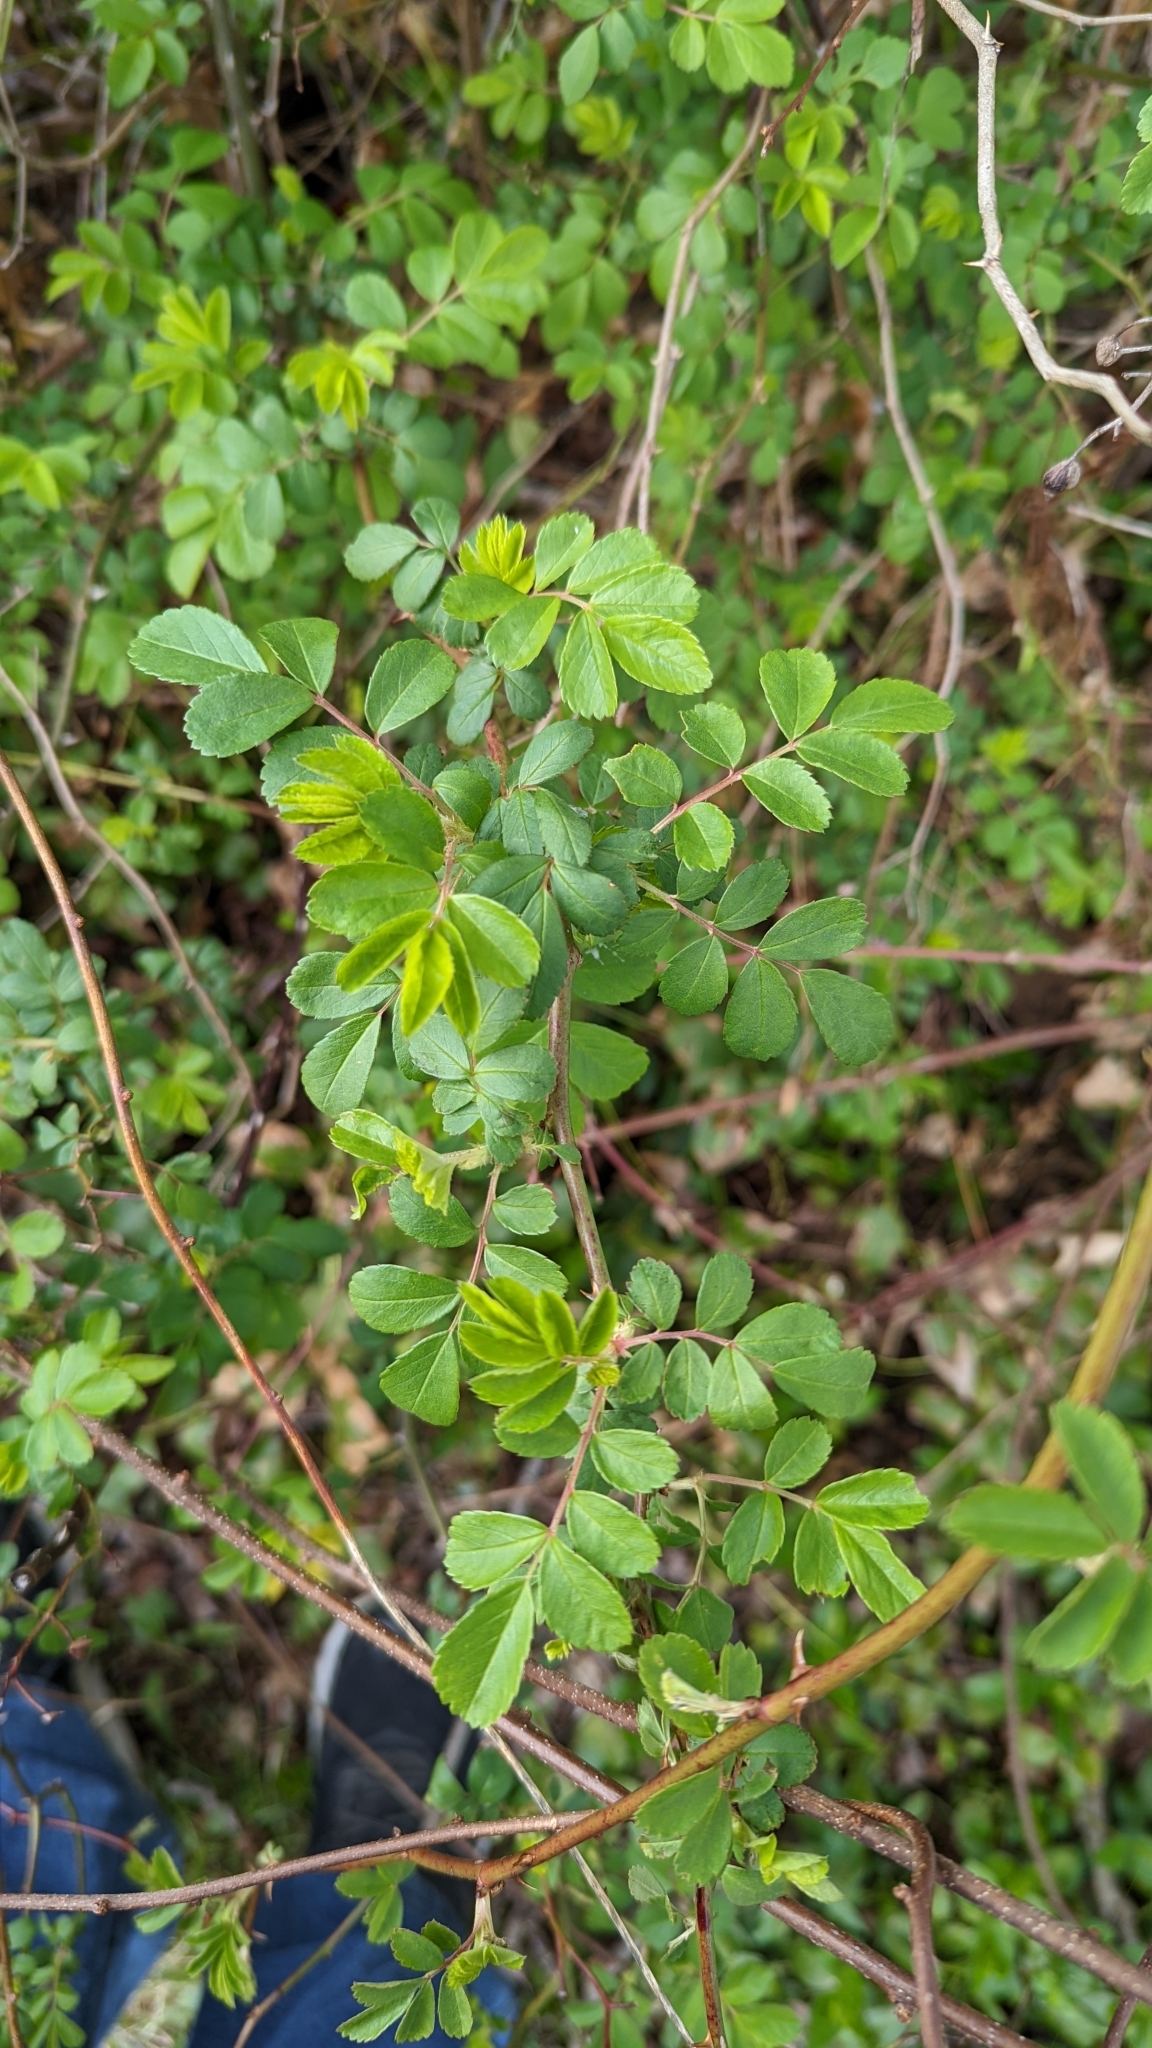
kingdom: Plantae
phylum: Tracheophyta
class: Magnoliopsida
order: Rosales
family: Rosaceae
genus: Rosa
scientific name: Rosa multiflora
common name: Multiflora rose
